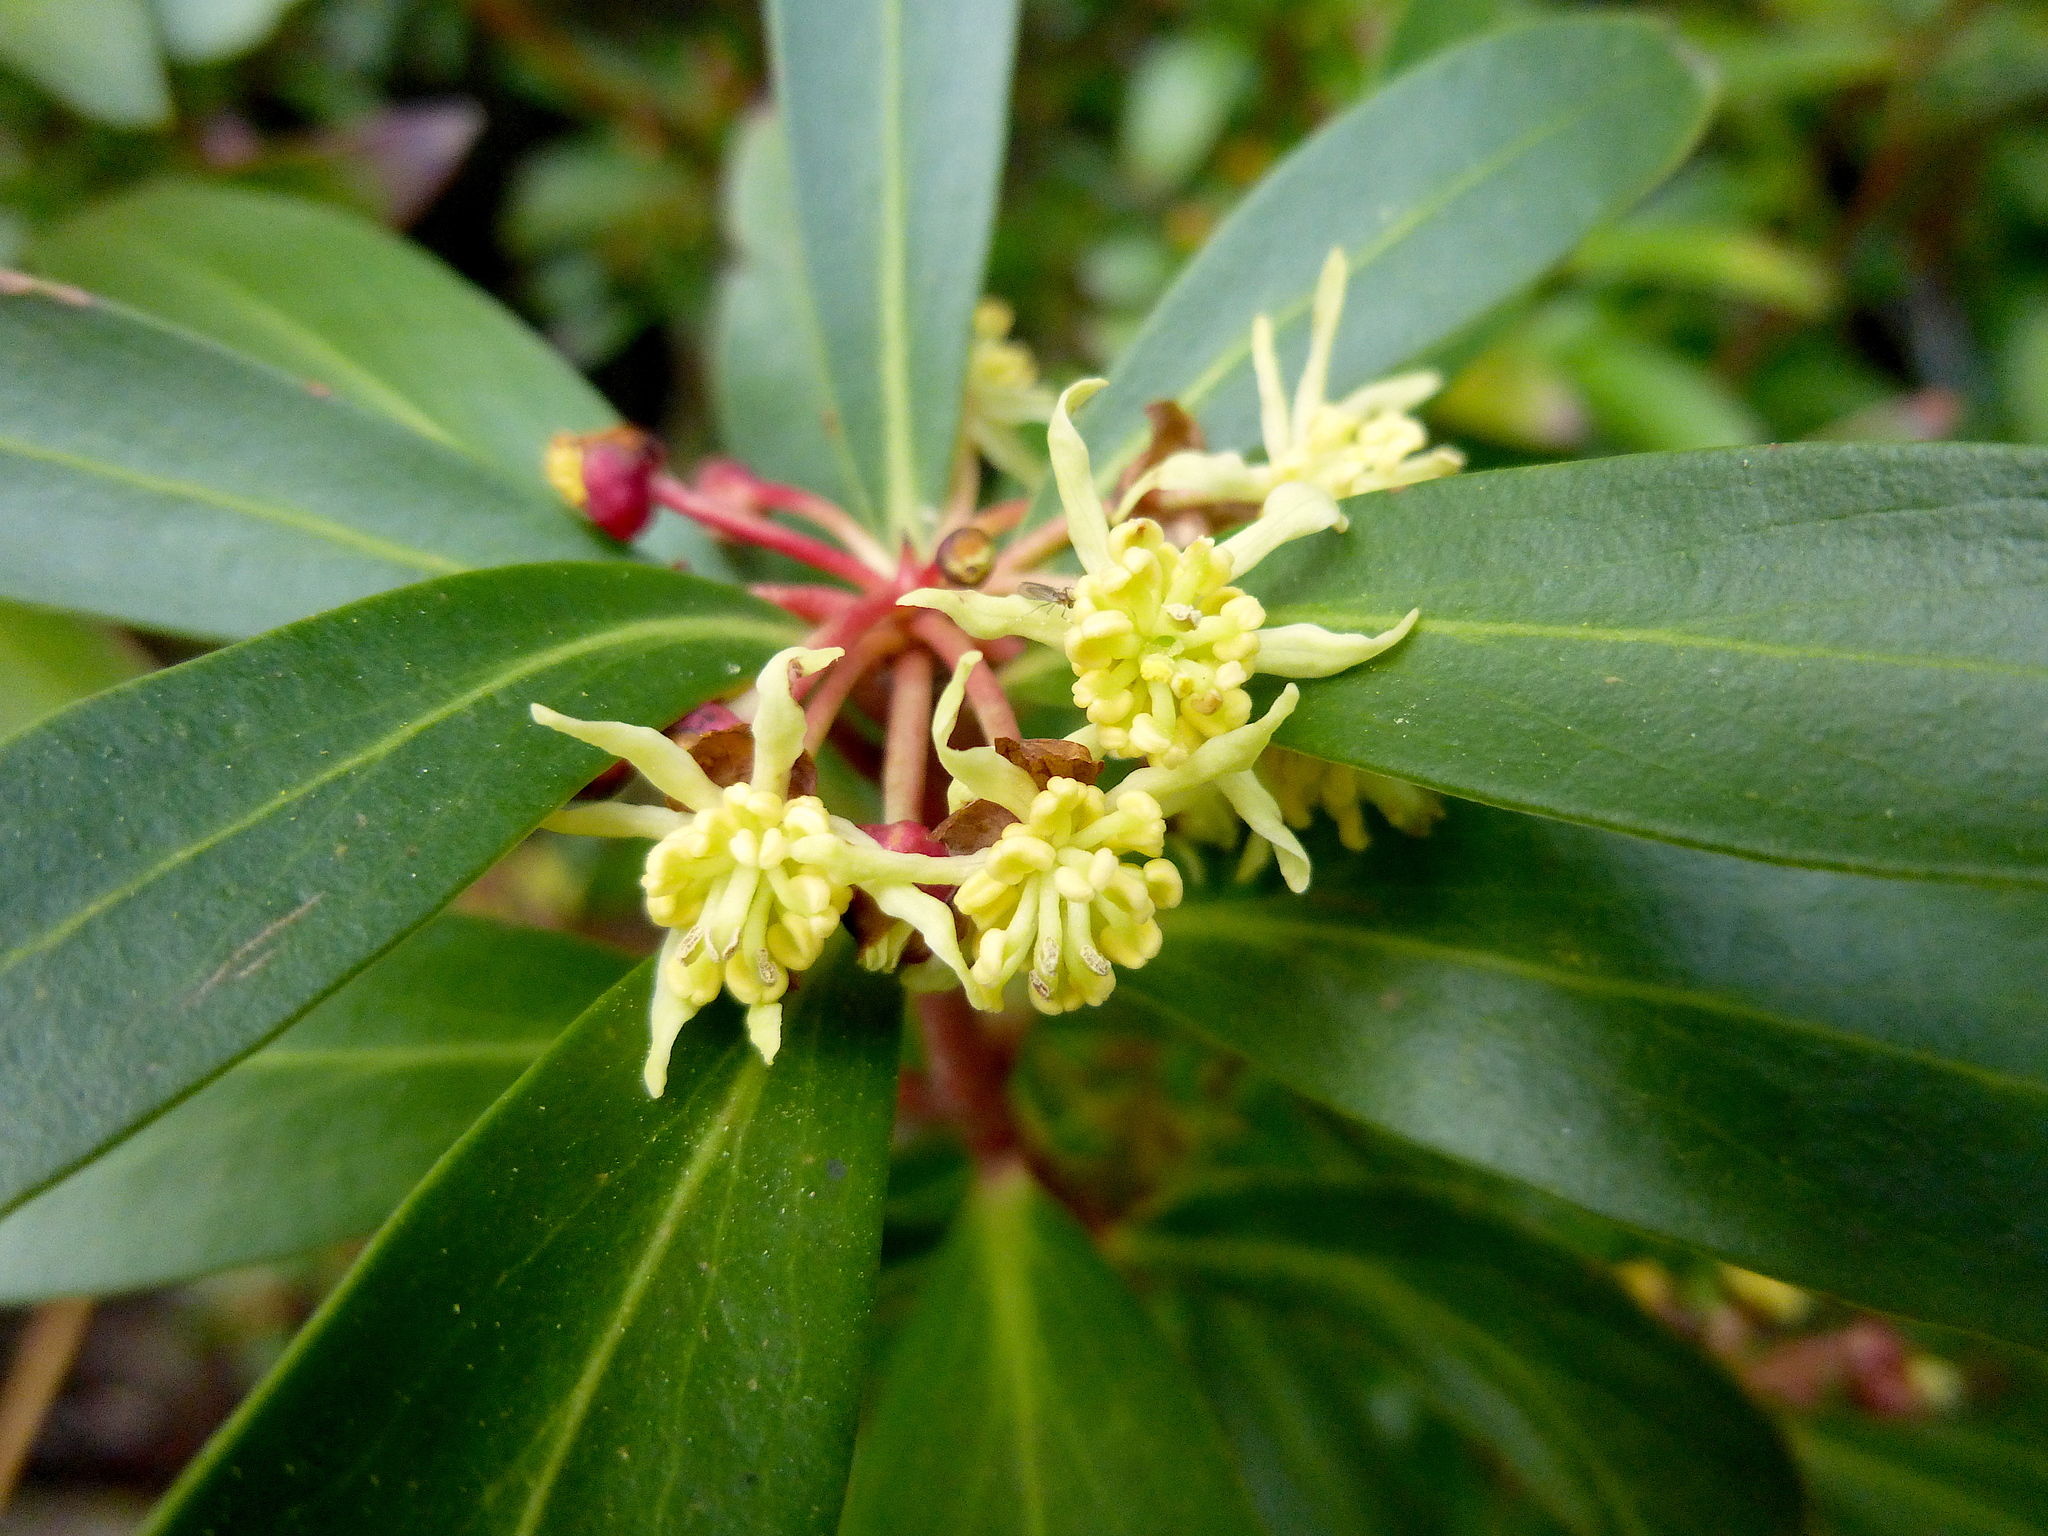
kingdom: Plantae
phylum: Tracheophyta
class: Magnoliopsida
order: Canellales
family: Winteraceae
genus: Drimys
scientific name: Drimys aromatica
